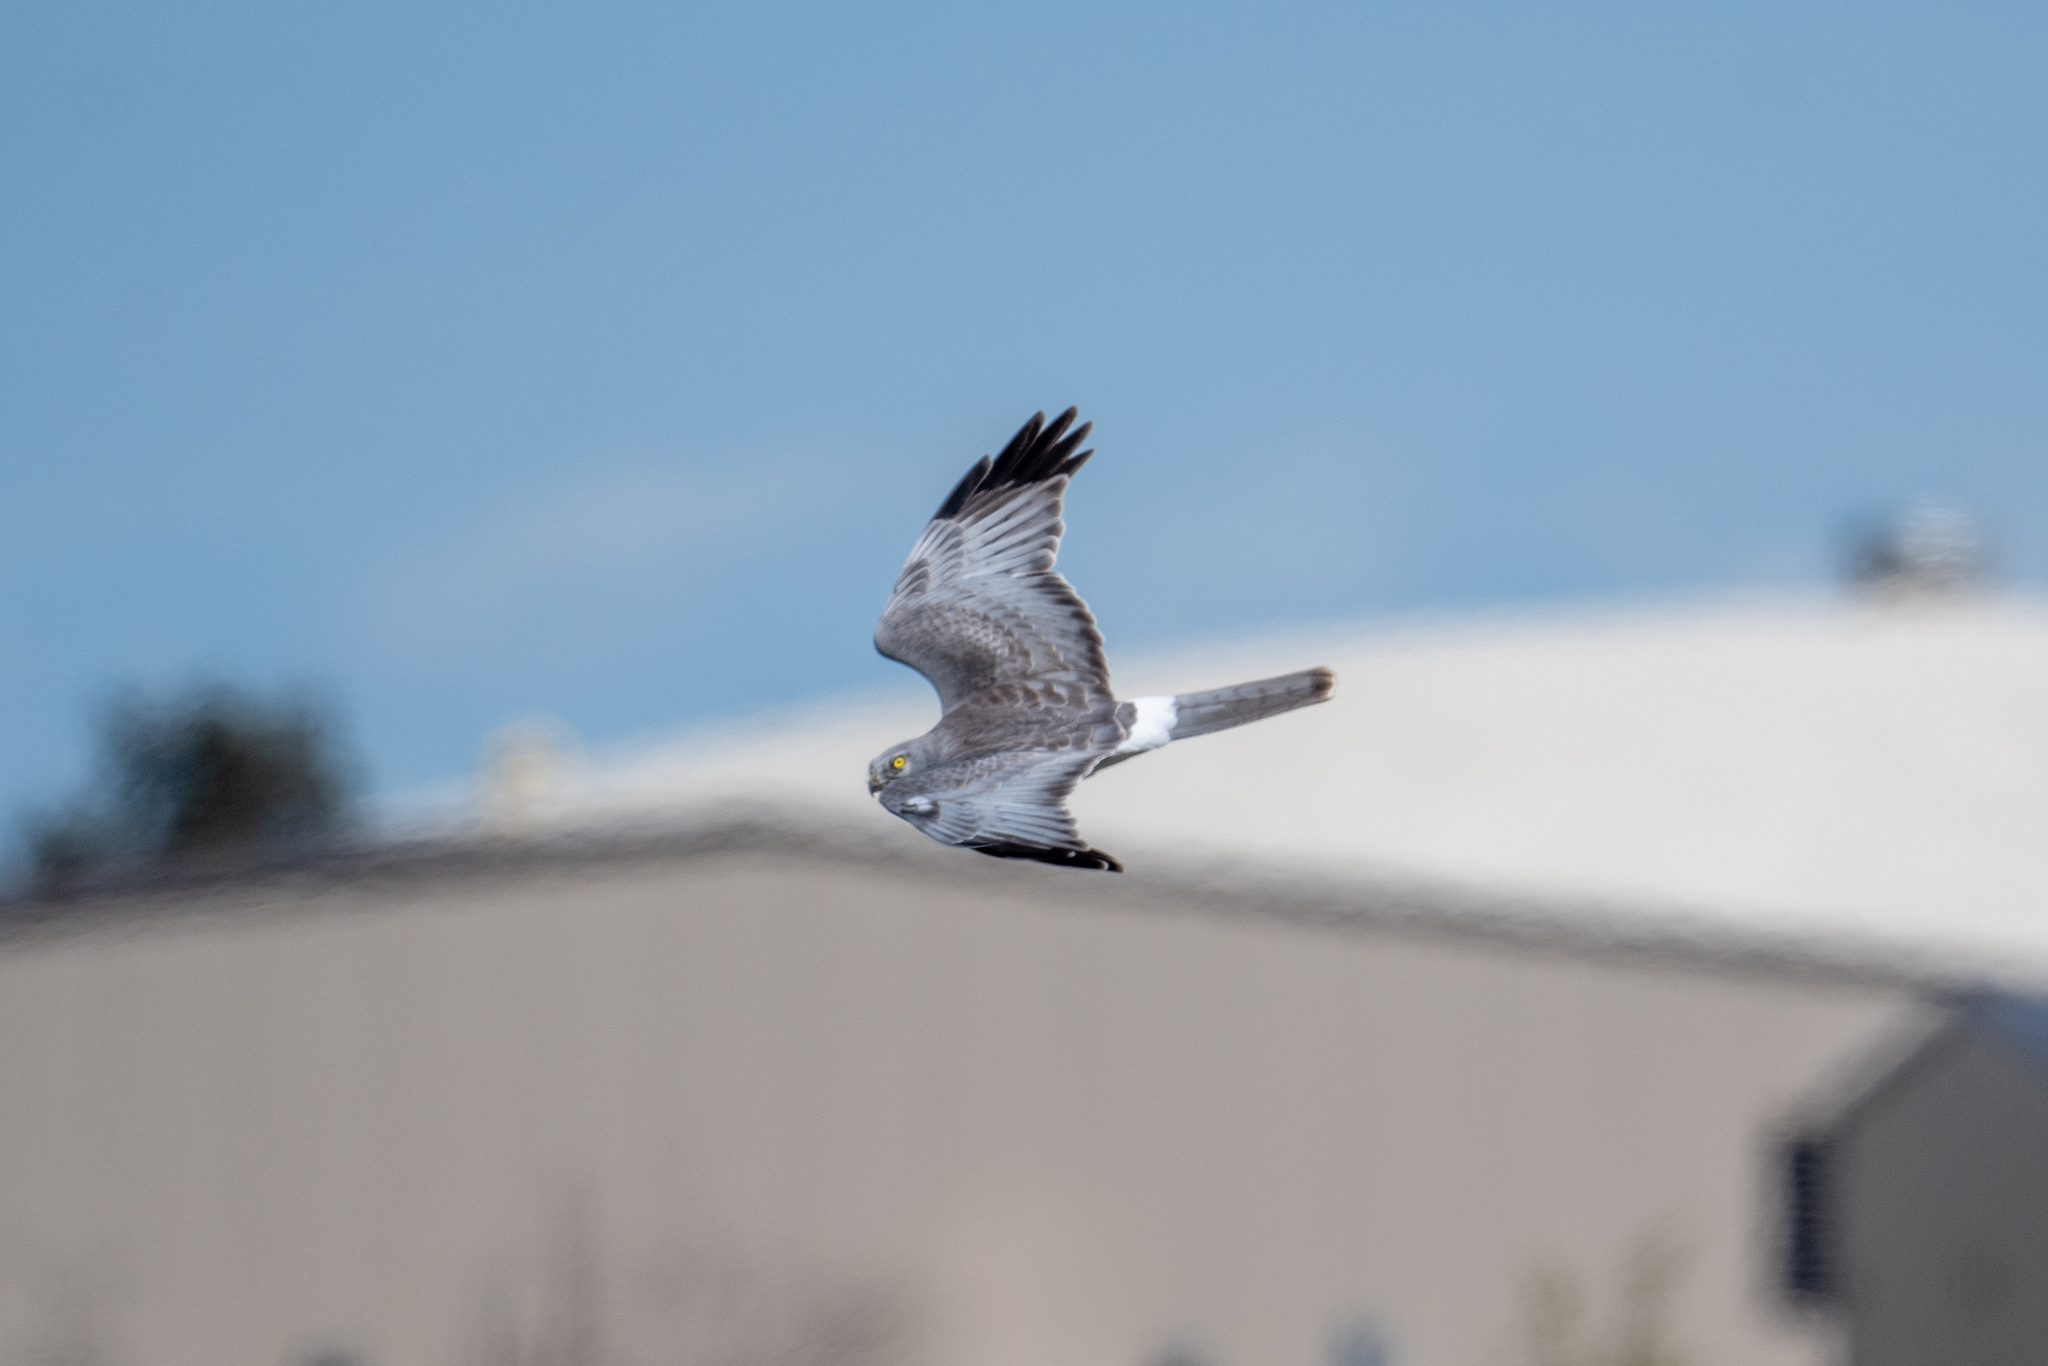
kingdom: Animalia
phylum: Chordata
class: Aves
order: Accipitriformes
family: Accipitridae
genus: Circus
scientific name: Circus cyaneus
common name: Hen harrier
